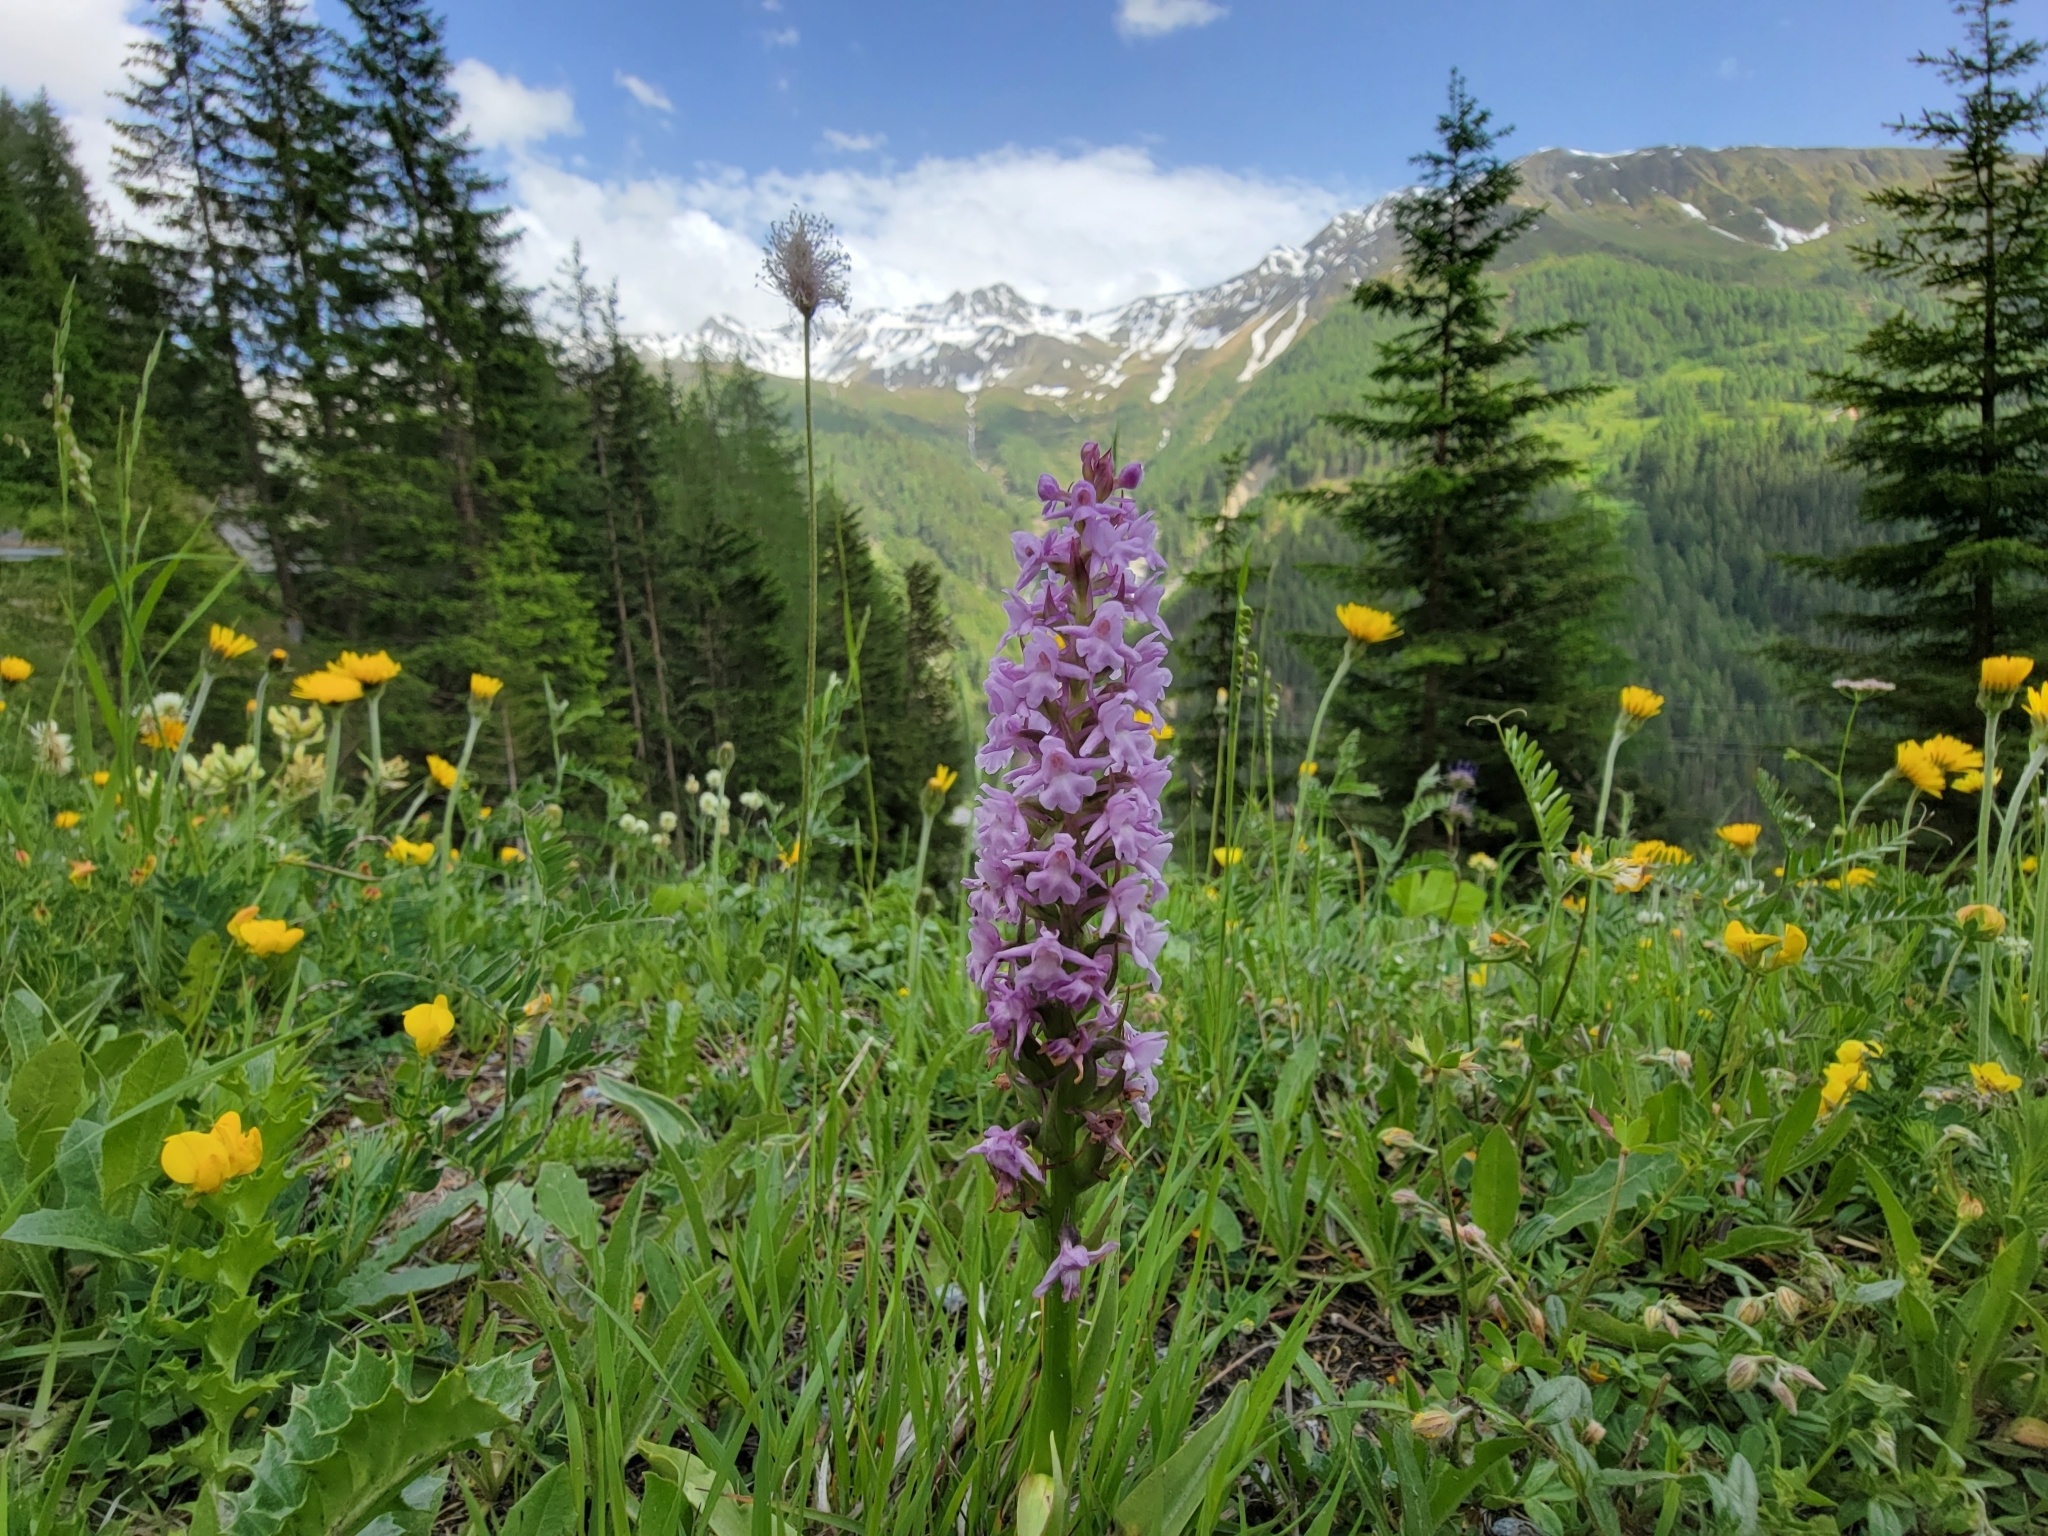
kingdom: Plantae
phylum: Tracheophyta
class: Liliopsida
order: Asparagales
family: Orchidaceae
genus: Gymnadenia
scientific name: Gymnadenia conopsea
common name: Fragrant orchid
